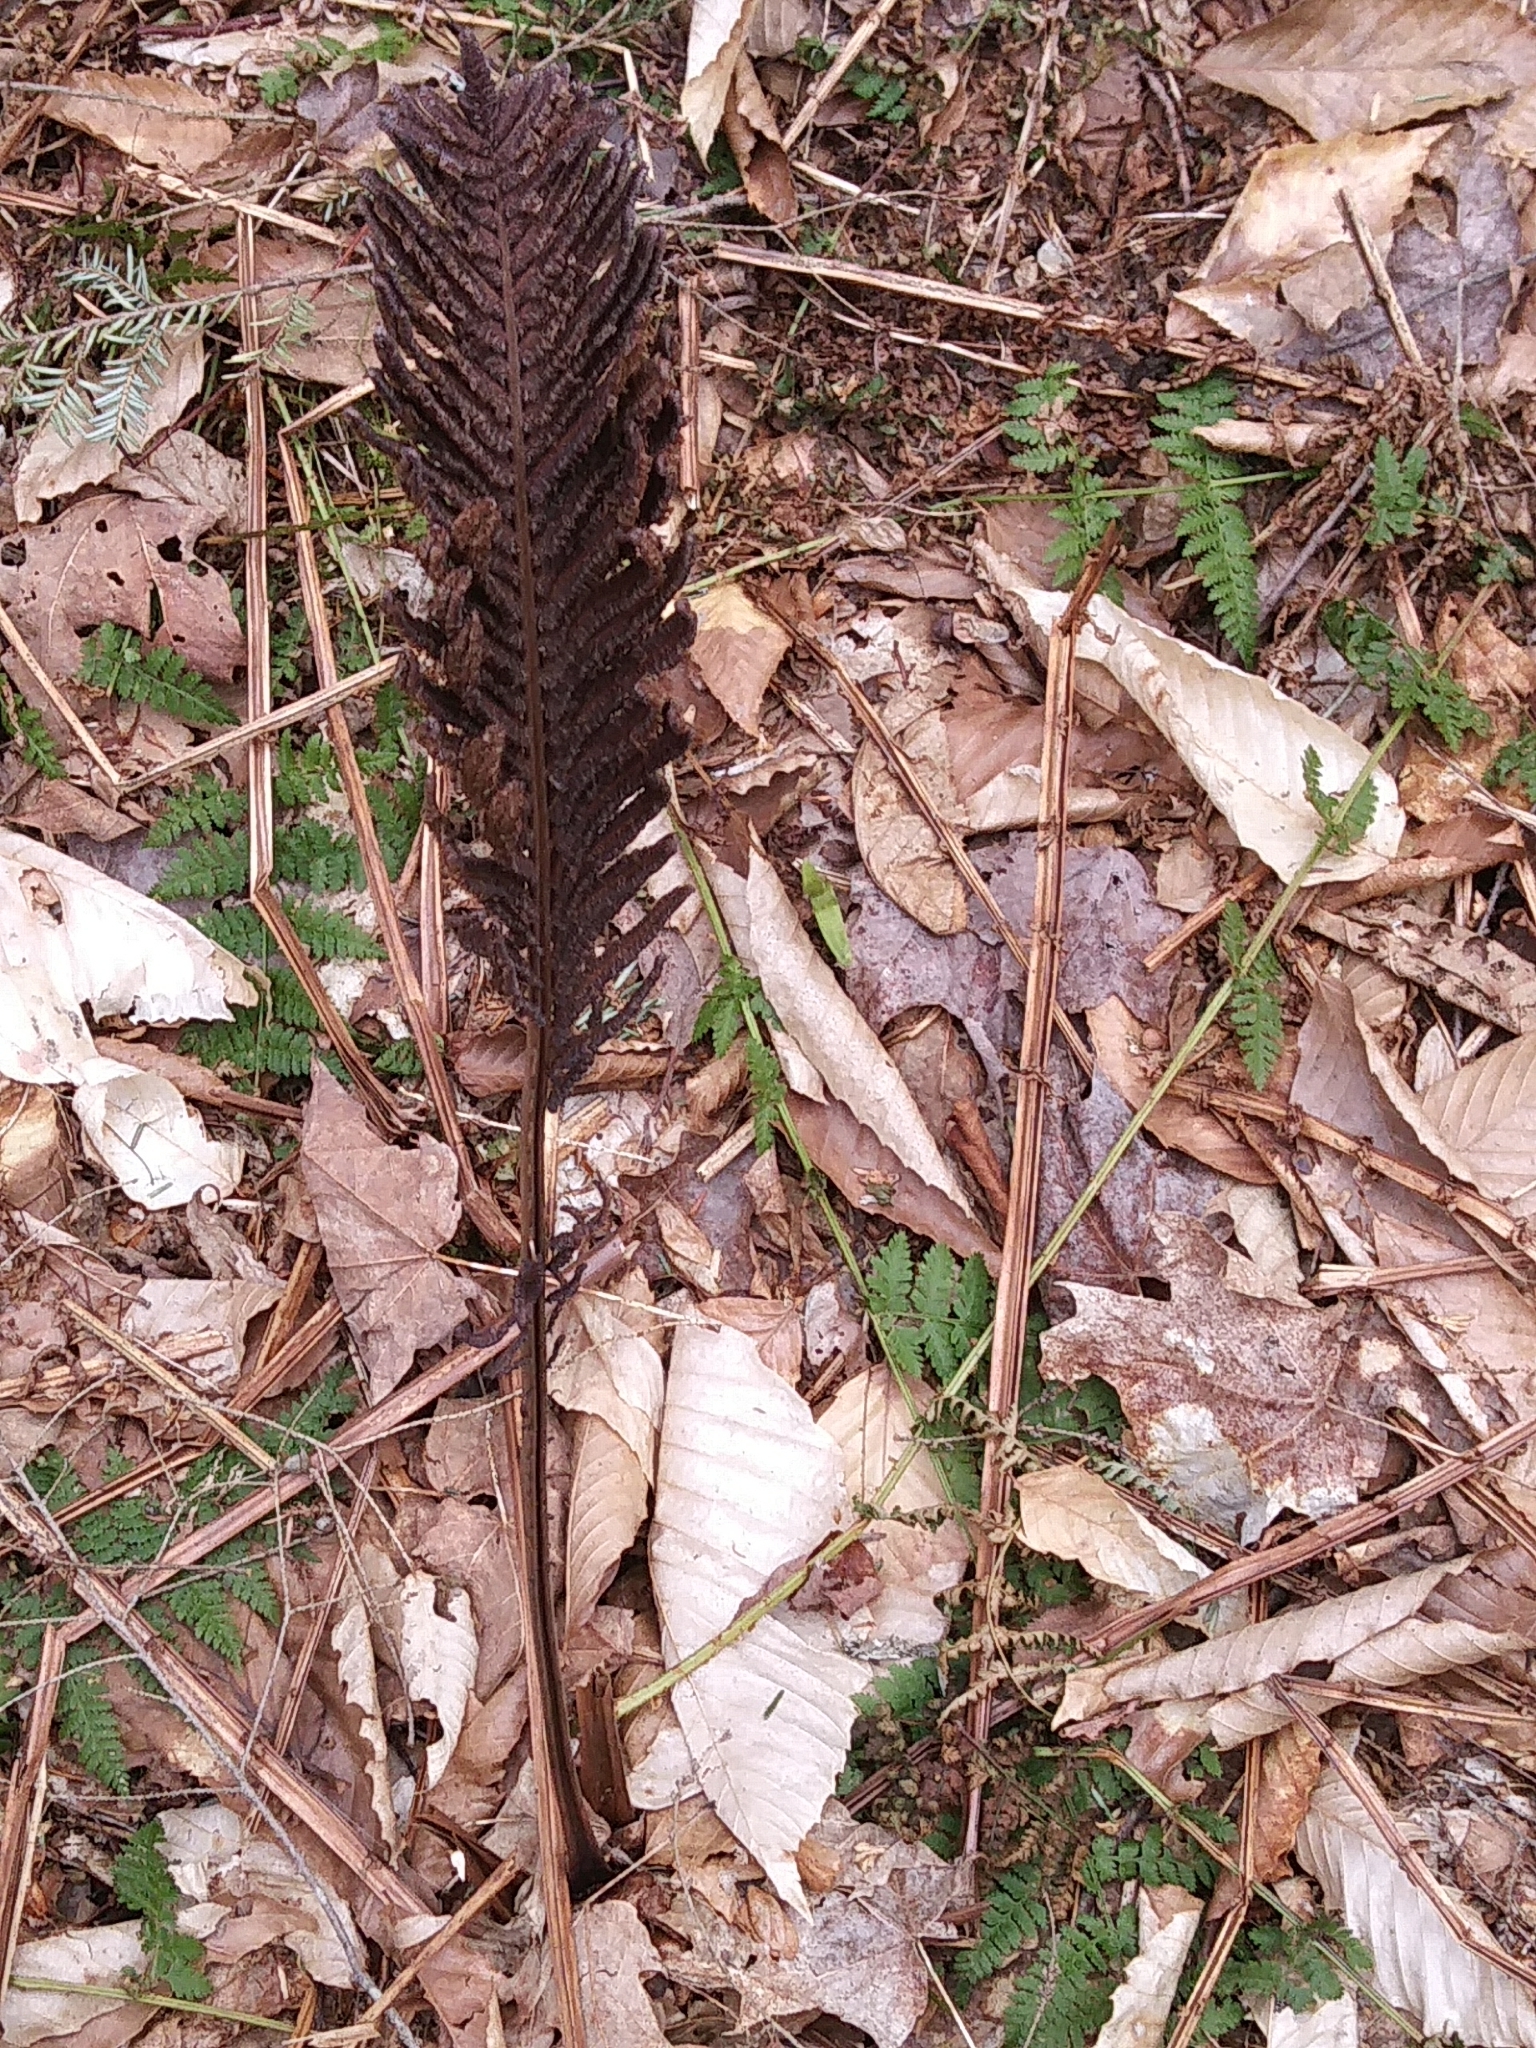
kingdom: Plantae
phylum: Tracheophyta
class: Polypodiopsida
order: Polypodiales
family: Onocleaceae
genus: Matteuccia
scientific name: Matteuccia struthiopteris
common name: Ostrich fern
